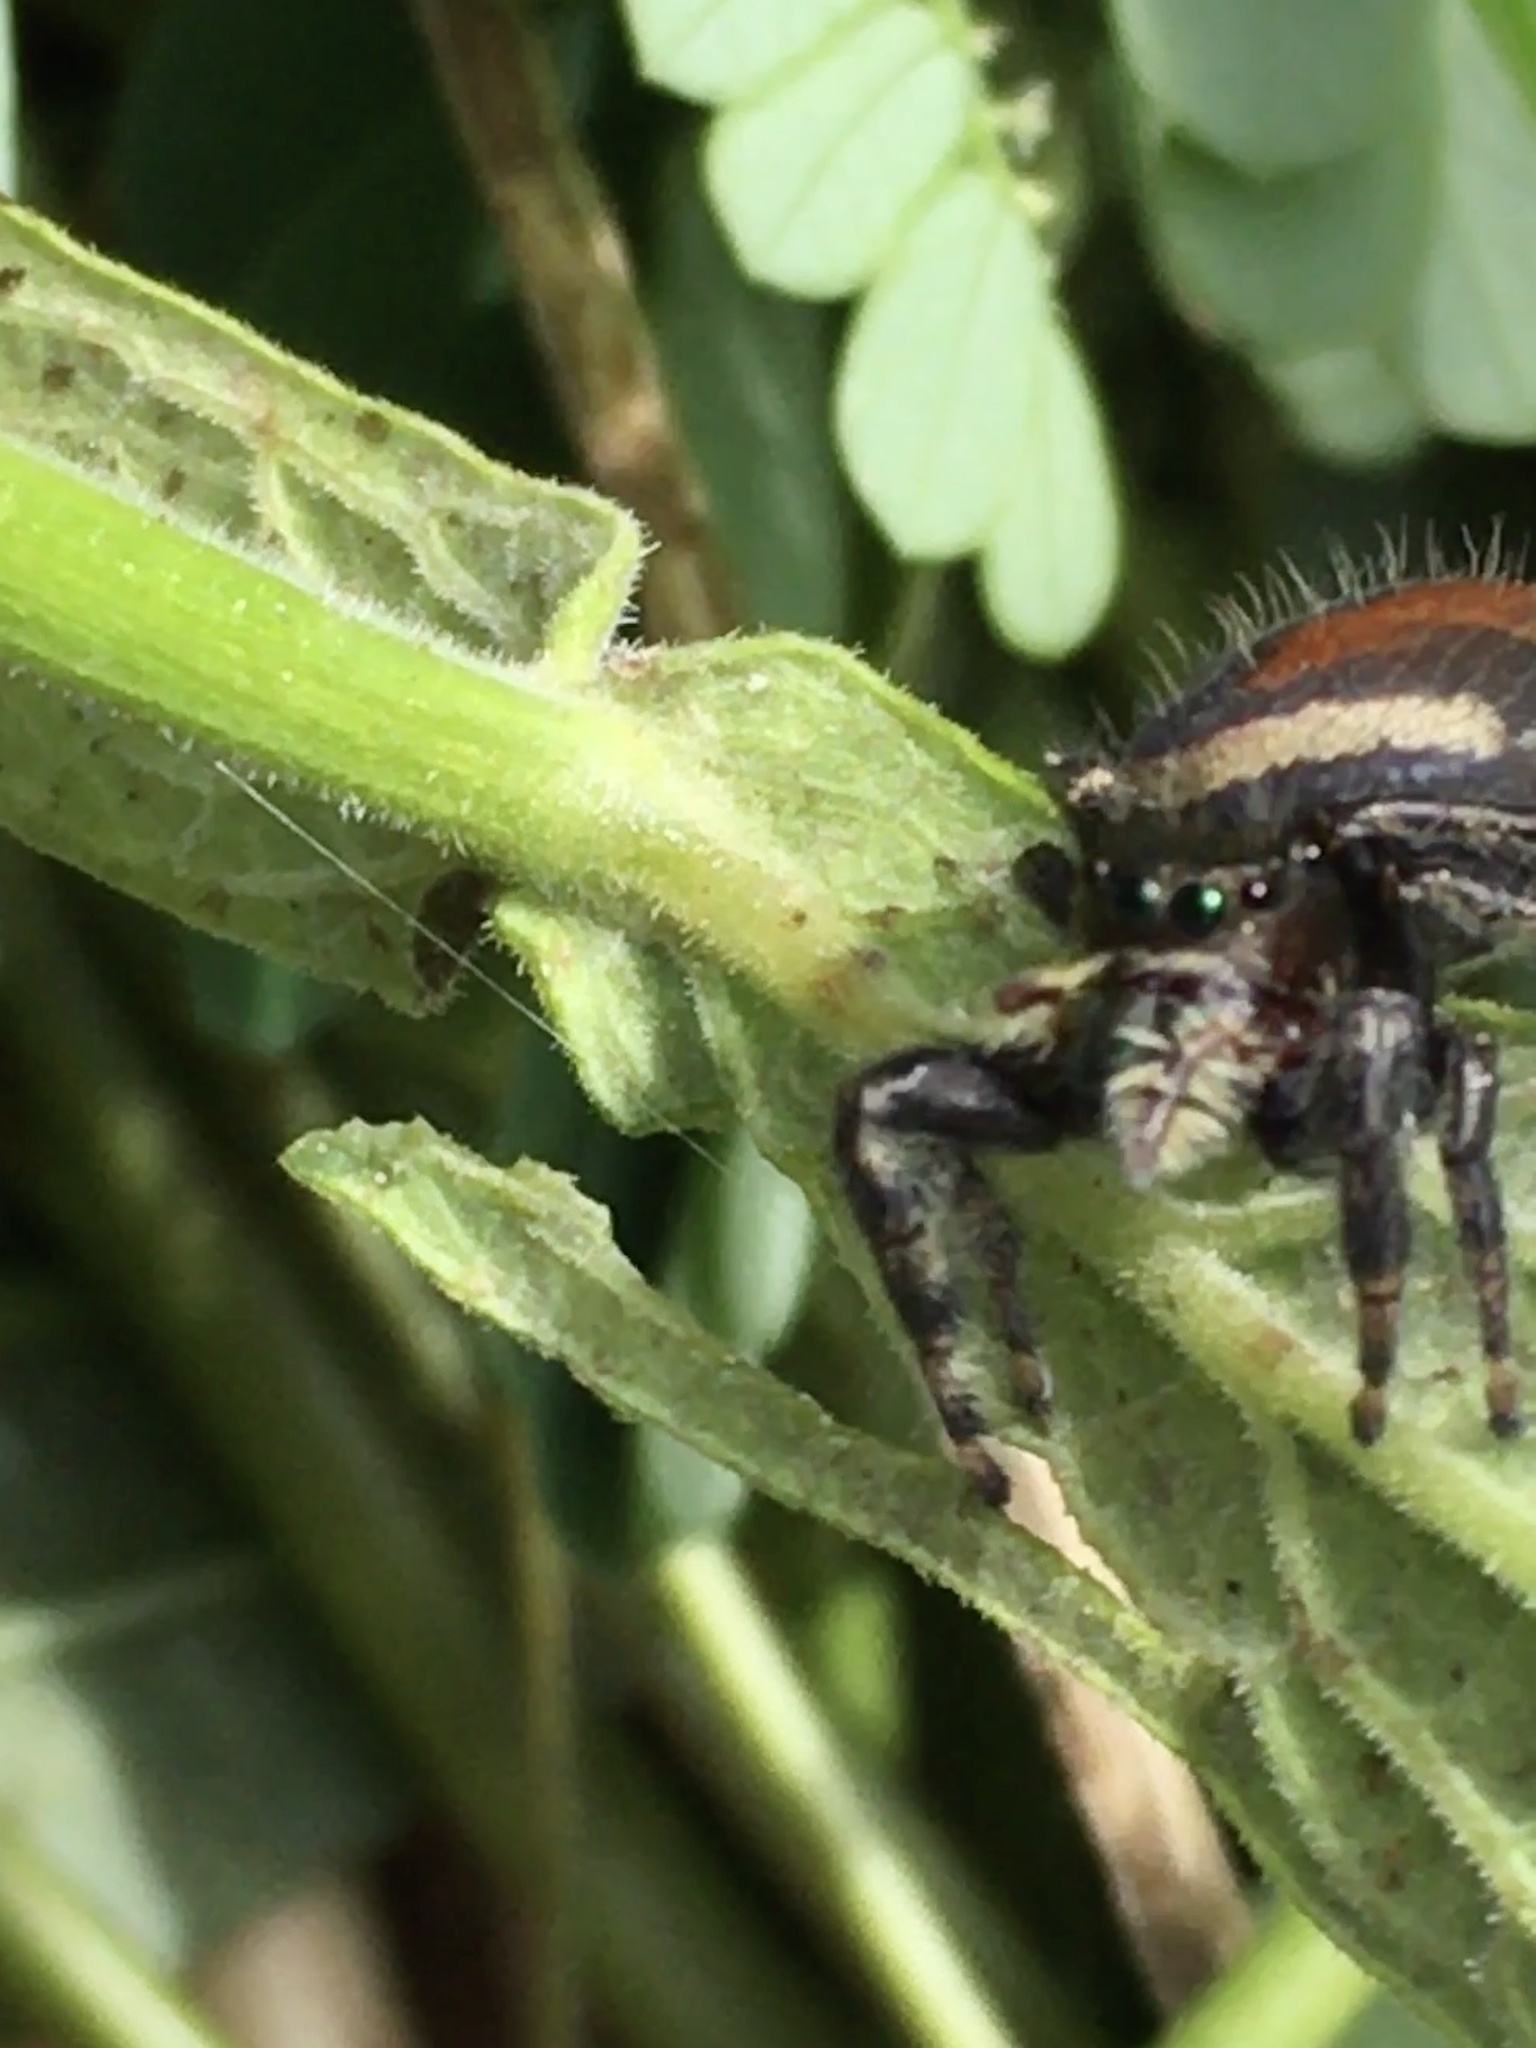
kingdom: Animalia
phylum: Arthropoda
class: Arachnida
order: Araneae
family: Salticidae
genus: Phidippus
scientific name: Phidippus clarus
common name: Brilliant jumping spider
